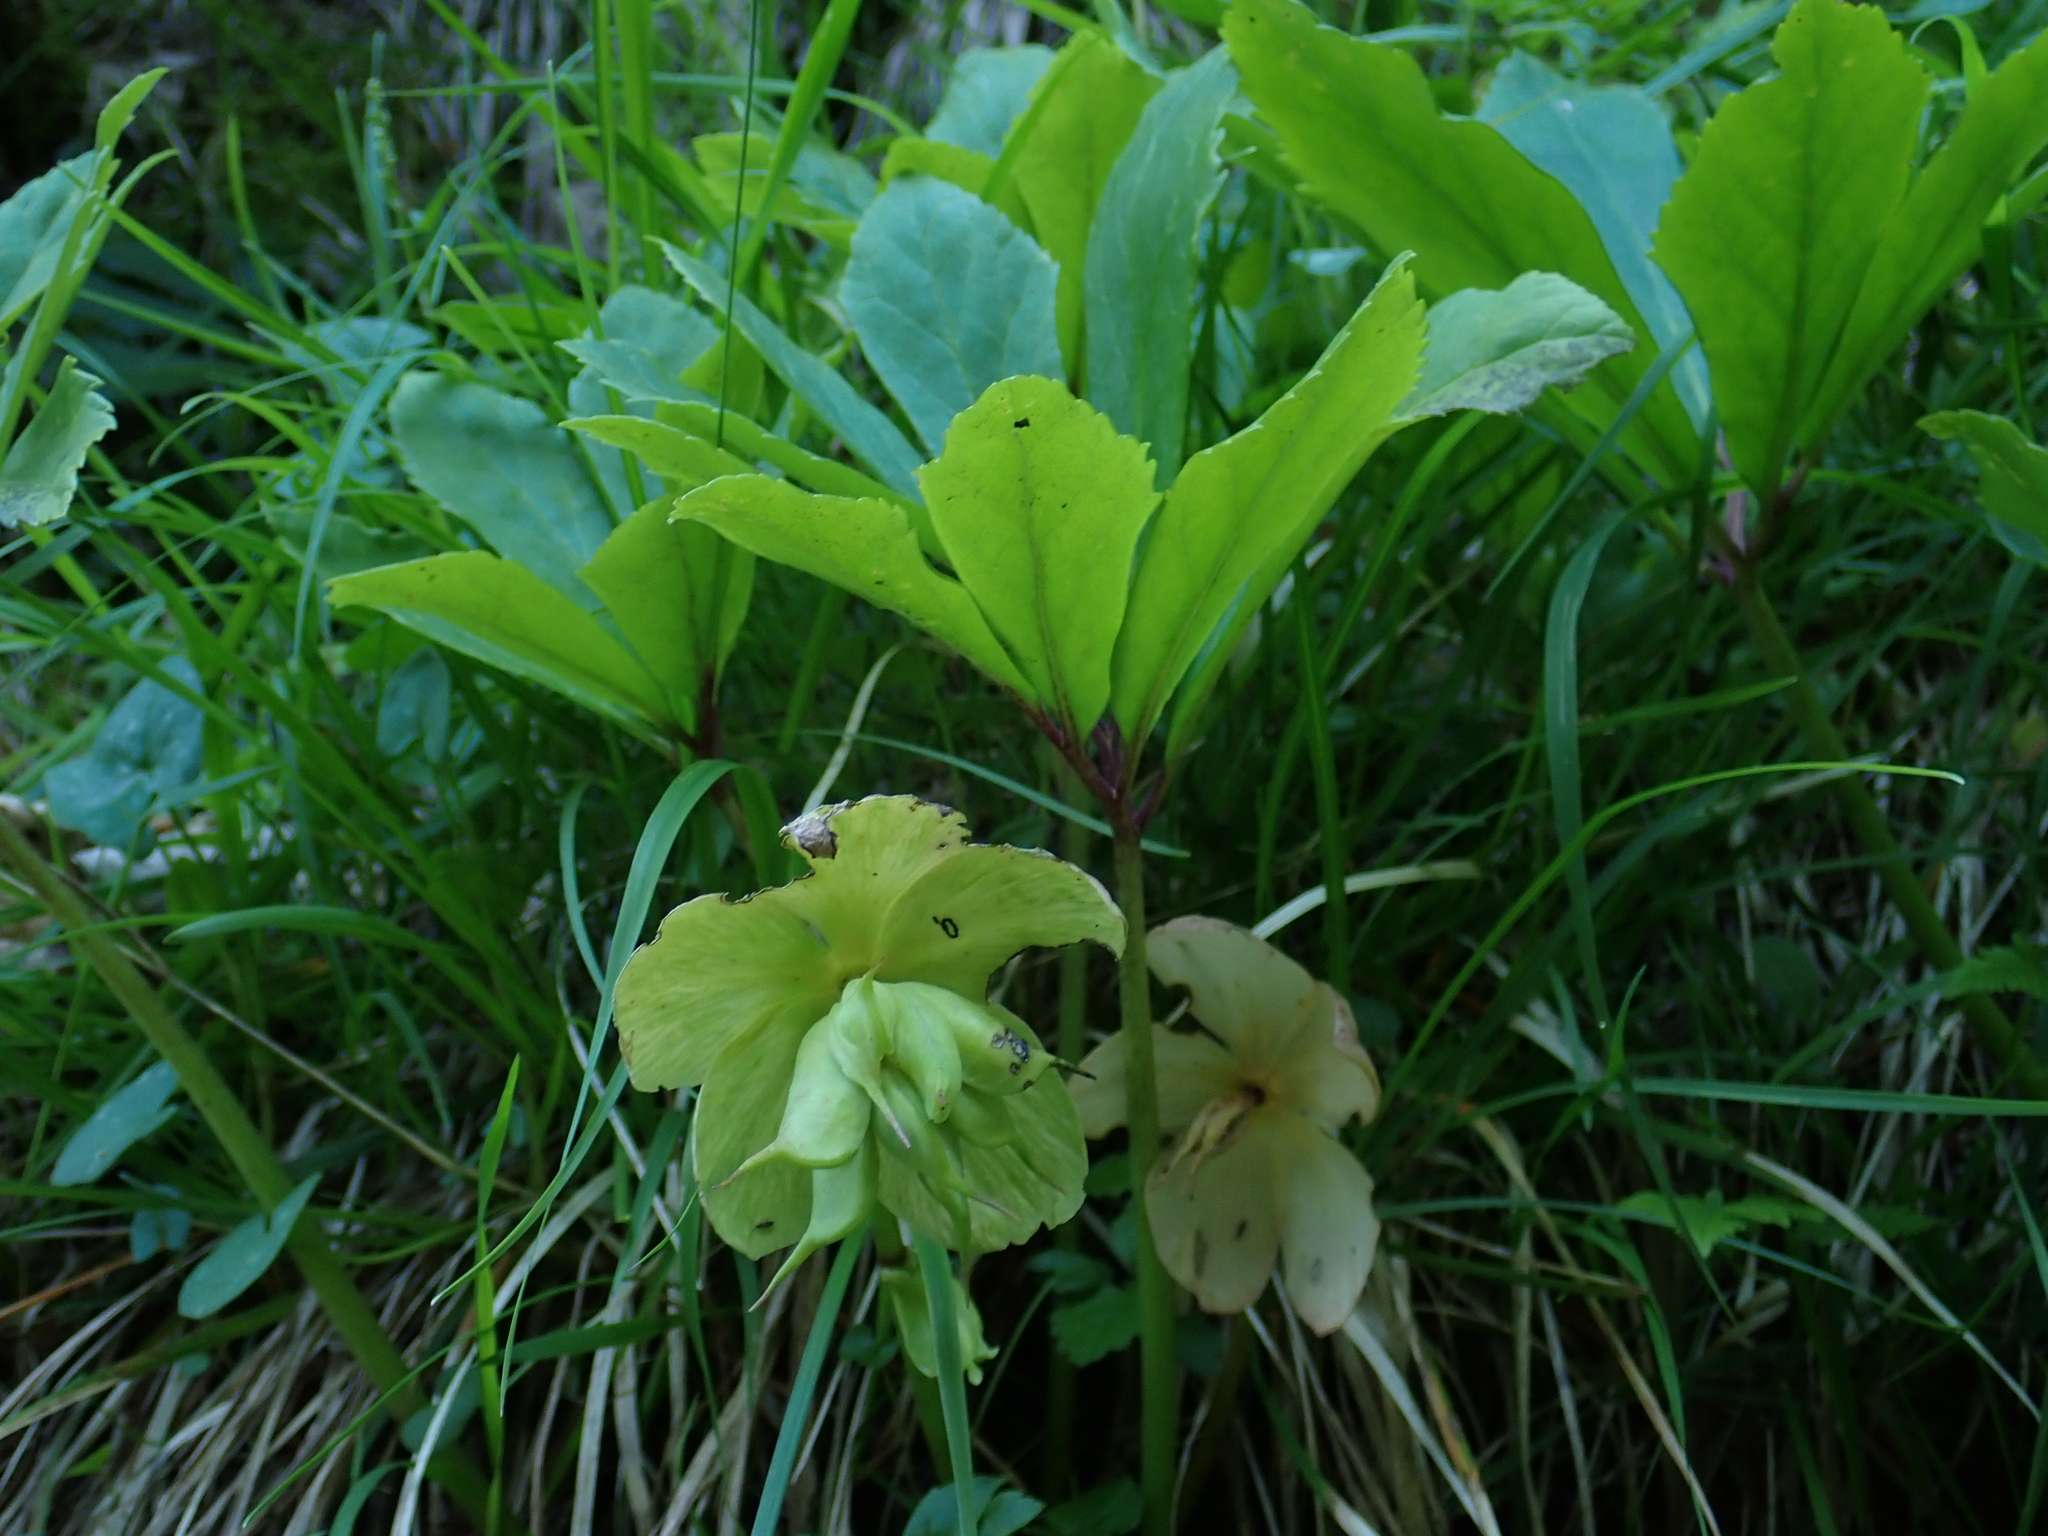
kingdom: Plantae
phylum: Tracheophyta
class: Magnoliopsida
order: Ranunculales
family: Ranunculaceae
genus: Helleborus
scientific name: Helleborus niger
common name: Black hellebore
